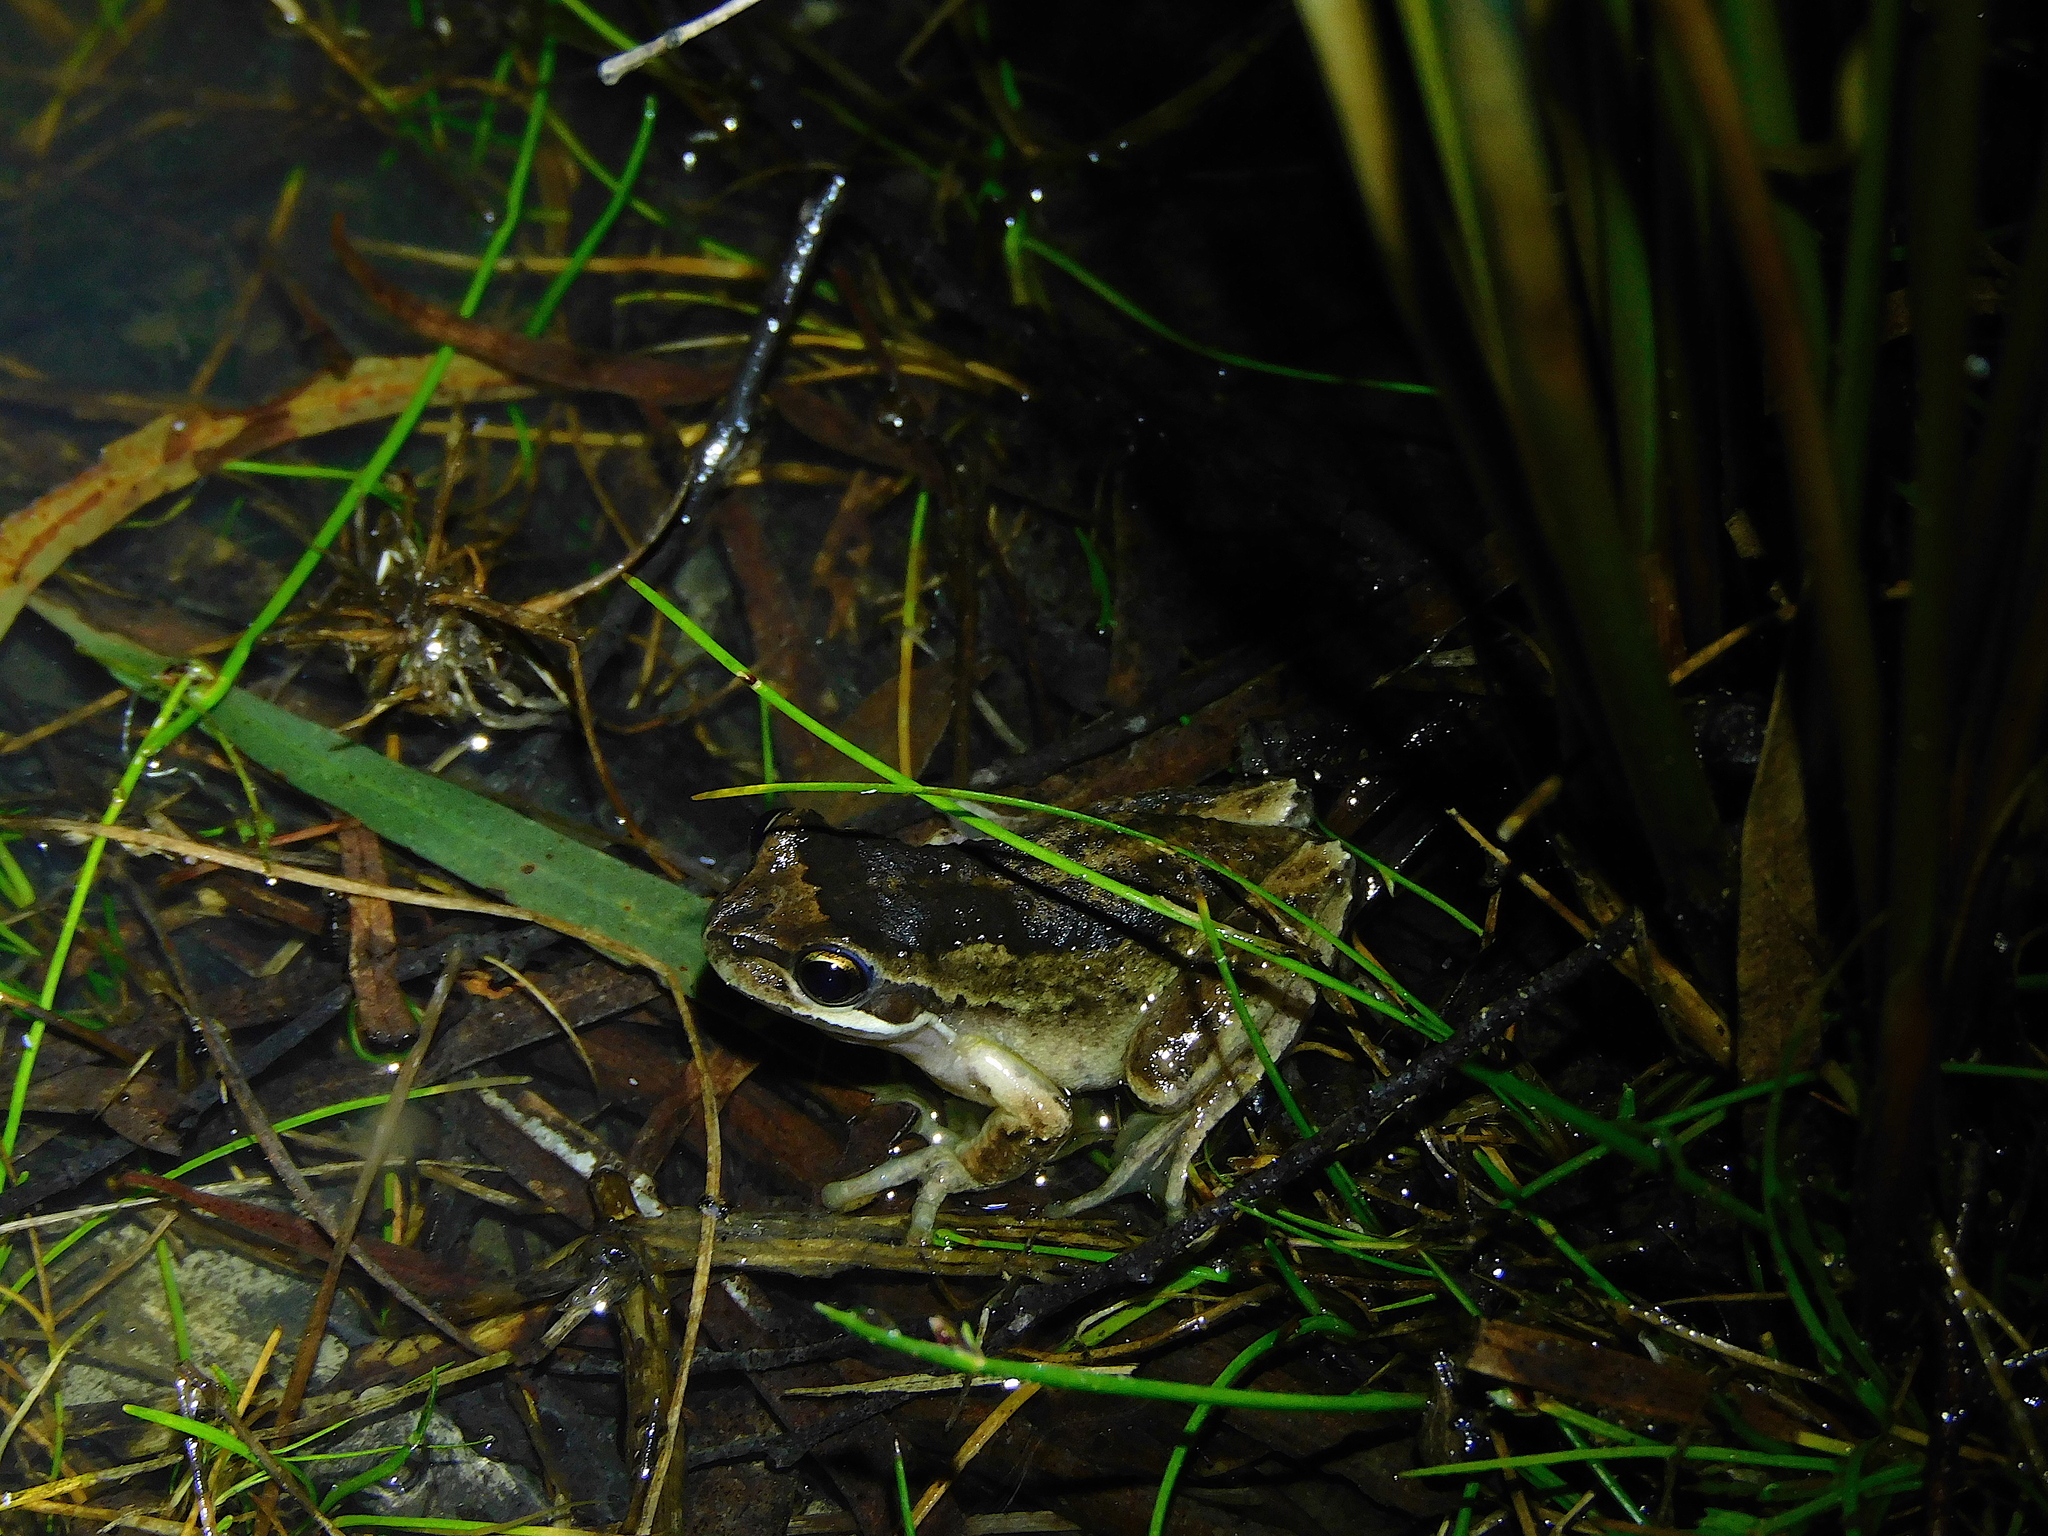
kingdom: Animalia
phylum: Chordata
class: Amphibia
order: Anura
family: Pelodryadidae
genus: Litoria
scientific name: Litoria ewingii
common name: Southern brown tree frog
